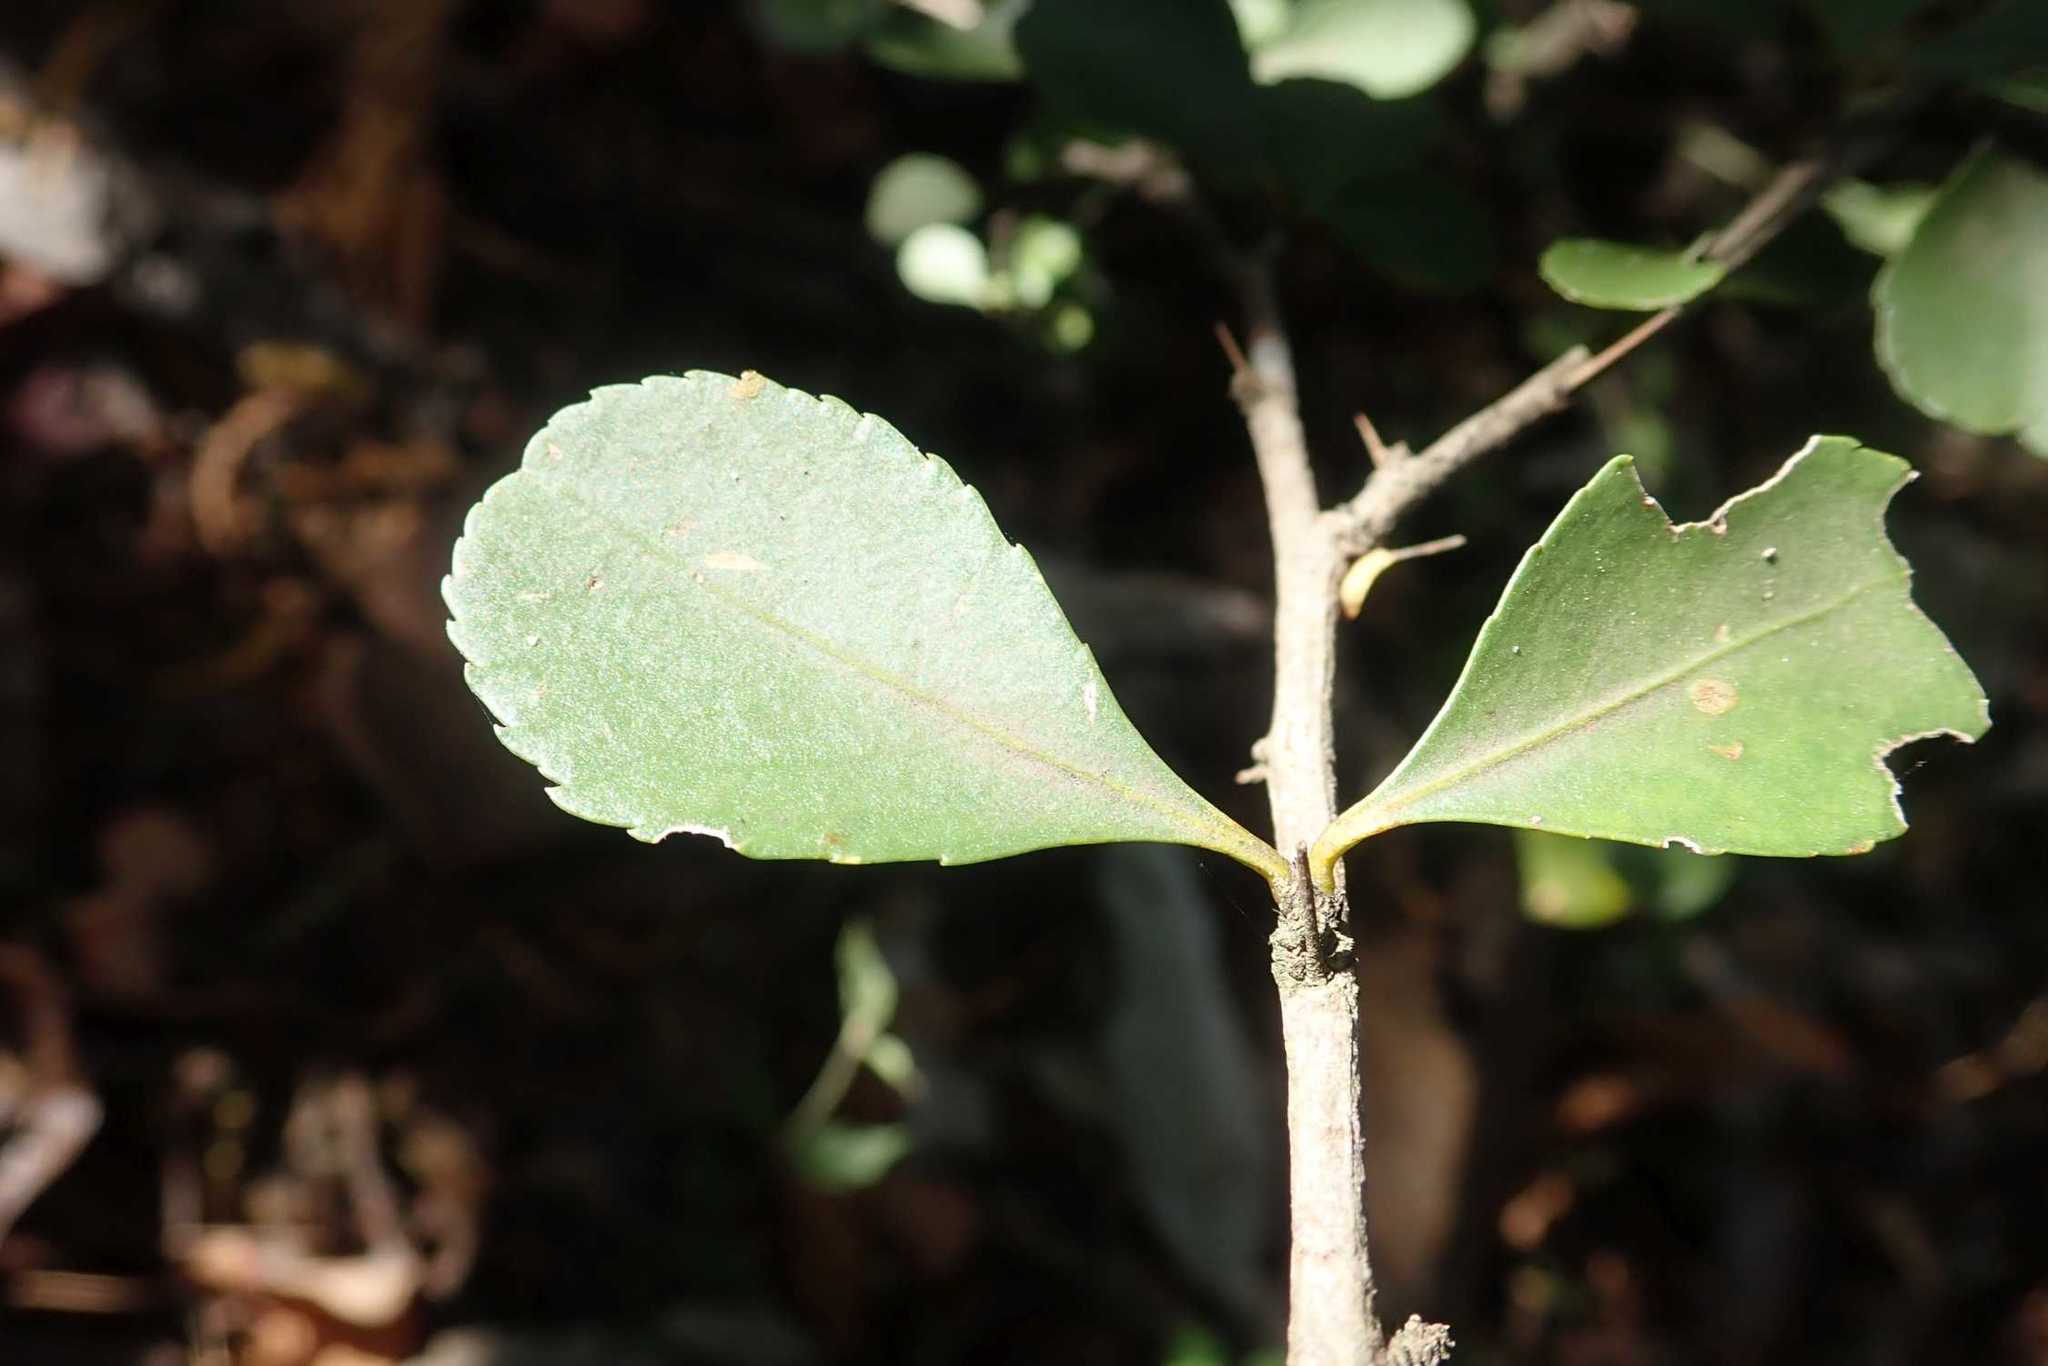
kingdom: Plantae
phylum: Tracheophyta
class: Magnoliopsida
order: Celastrales
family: Celastraceae
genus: Gymnosporia
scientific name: Gymnosporia harveyana
